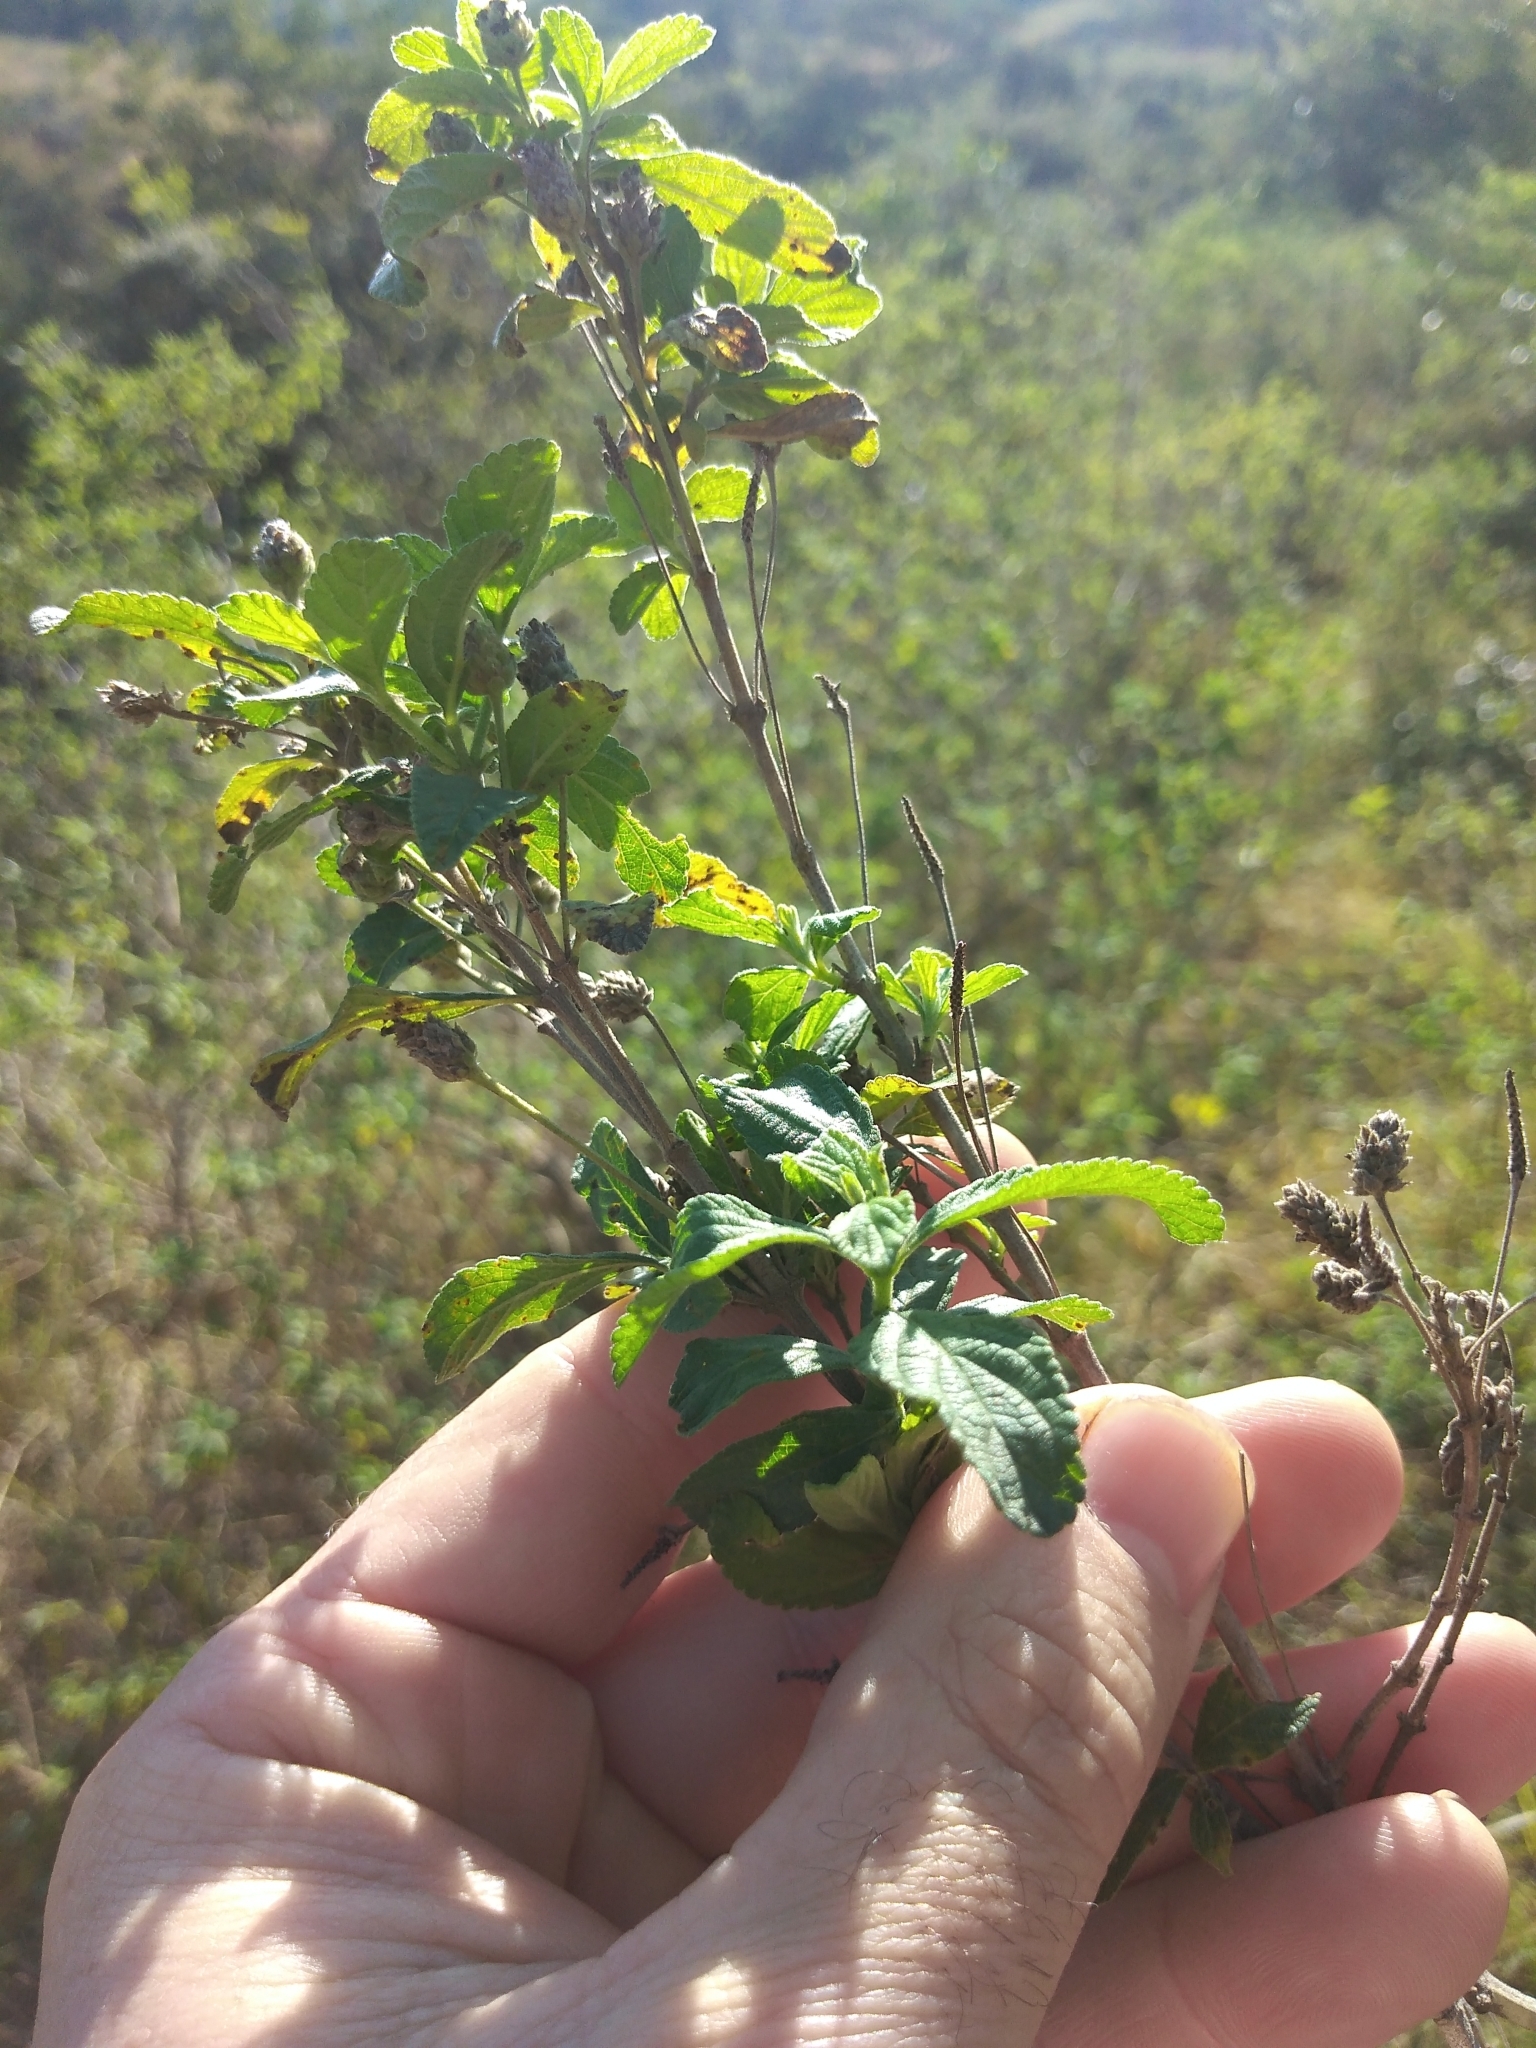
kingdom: Plantae
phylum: Tracheophyta
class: Magnoliopsida
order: Lamiales
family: Verbenaceae
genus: Lippia
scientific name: Lippia javanica
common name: Lemonbush
